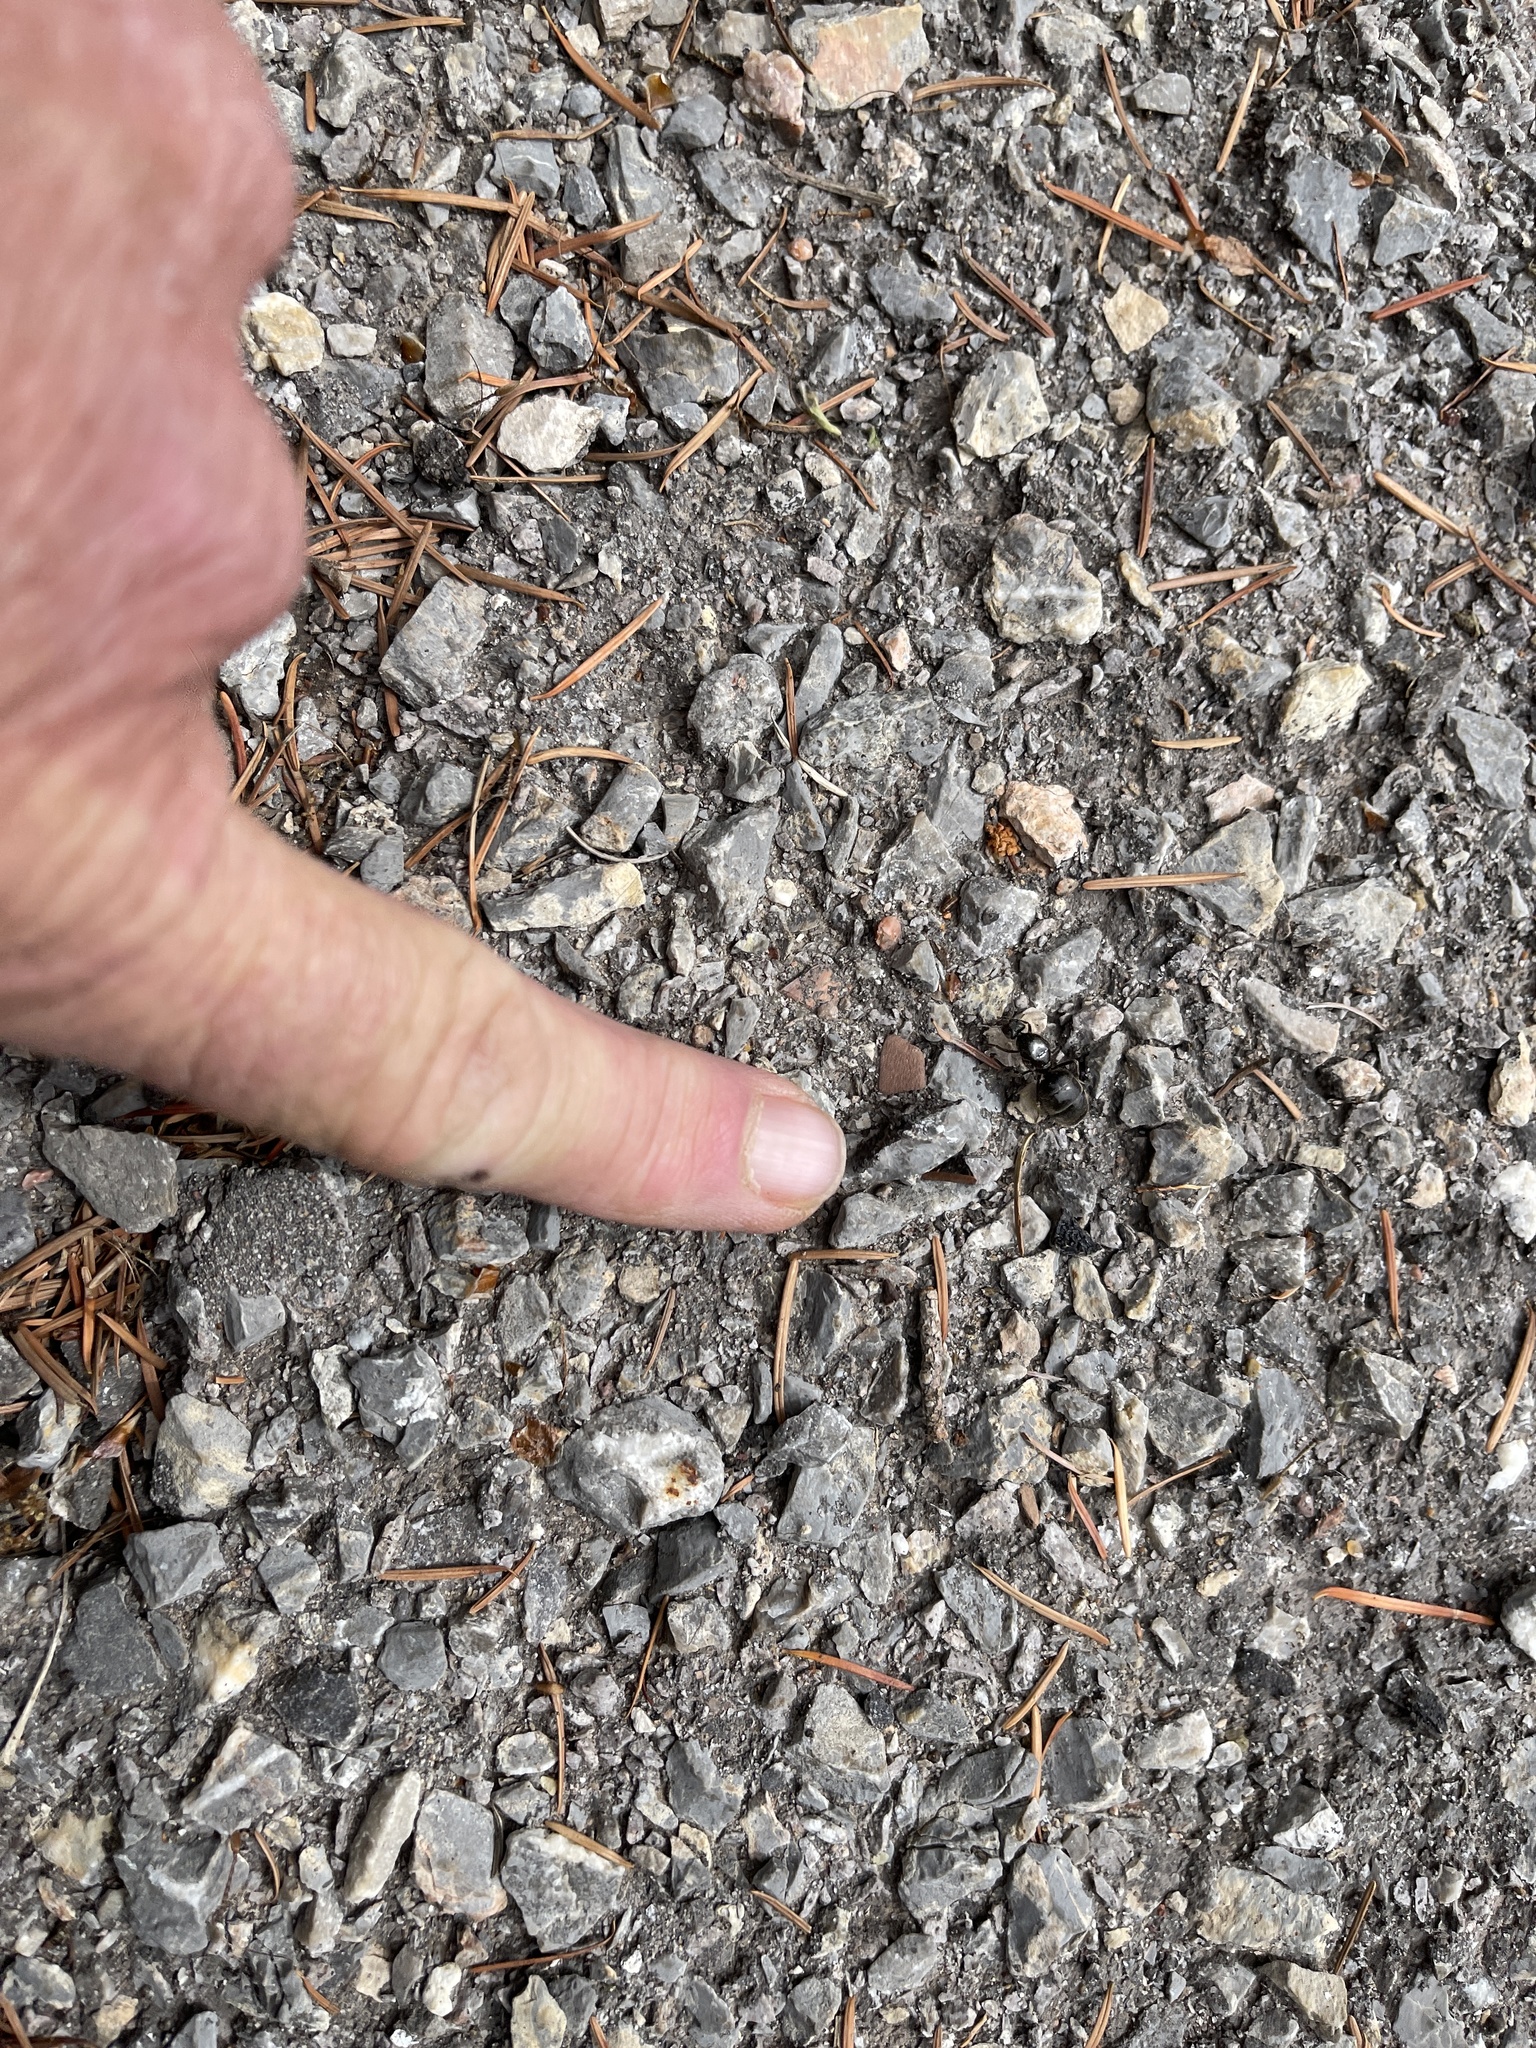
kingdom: Animalia
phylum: Arthropoda
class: Insecta
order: Hymenoptera
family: Formicidae
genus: Liometopum
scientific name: Liometopum apiculatum
